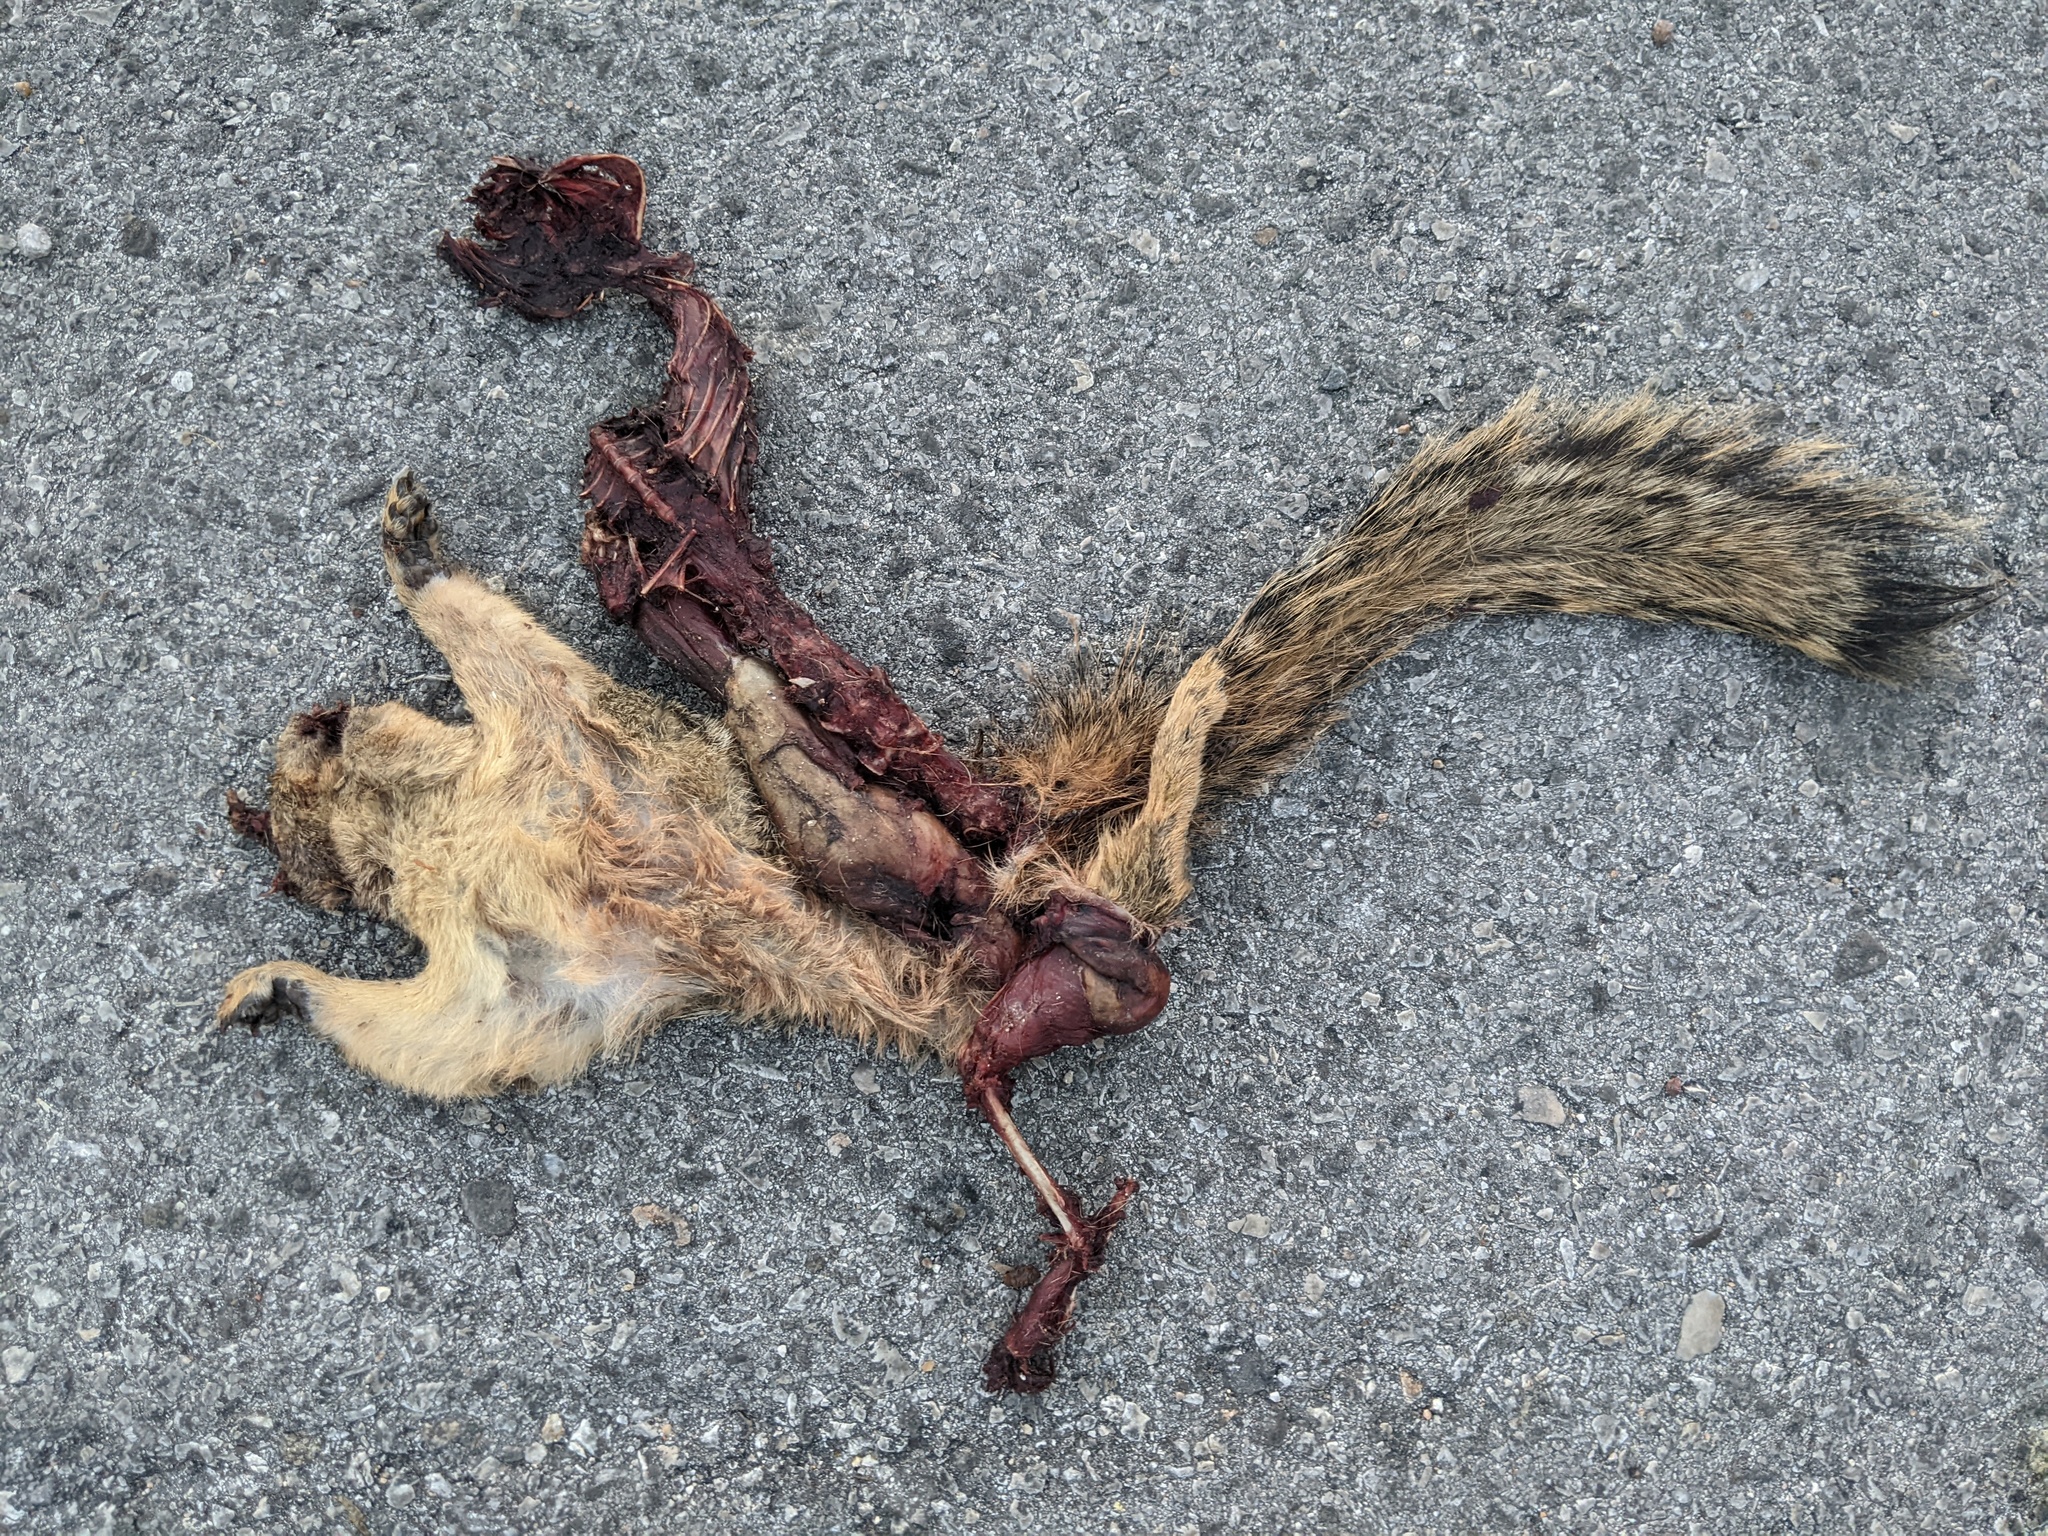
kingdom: Animalia
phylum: Chordata
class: Mammalia
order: Rodentia
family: Sciuridae
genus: Sciurus
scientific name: Sciurus niger
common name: Fox squirrel
